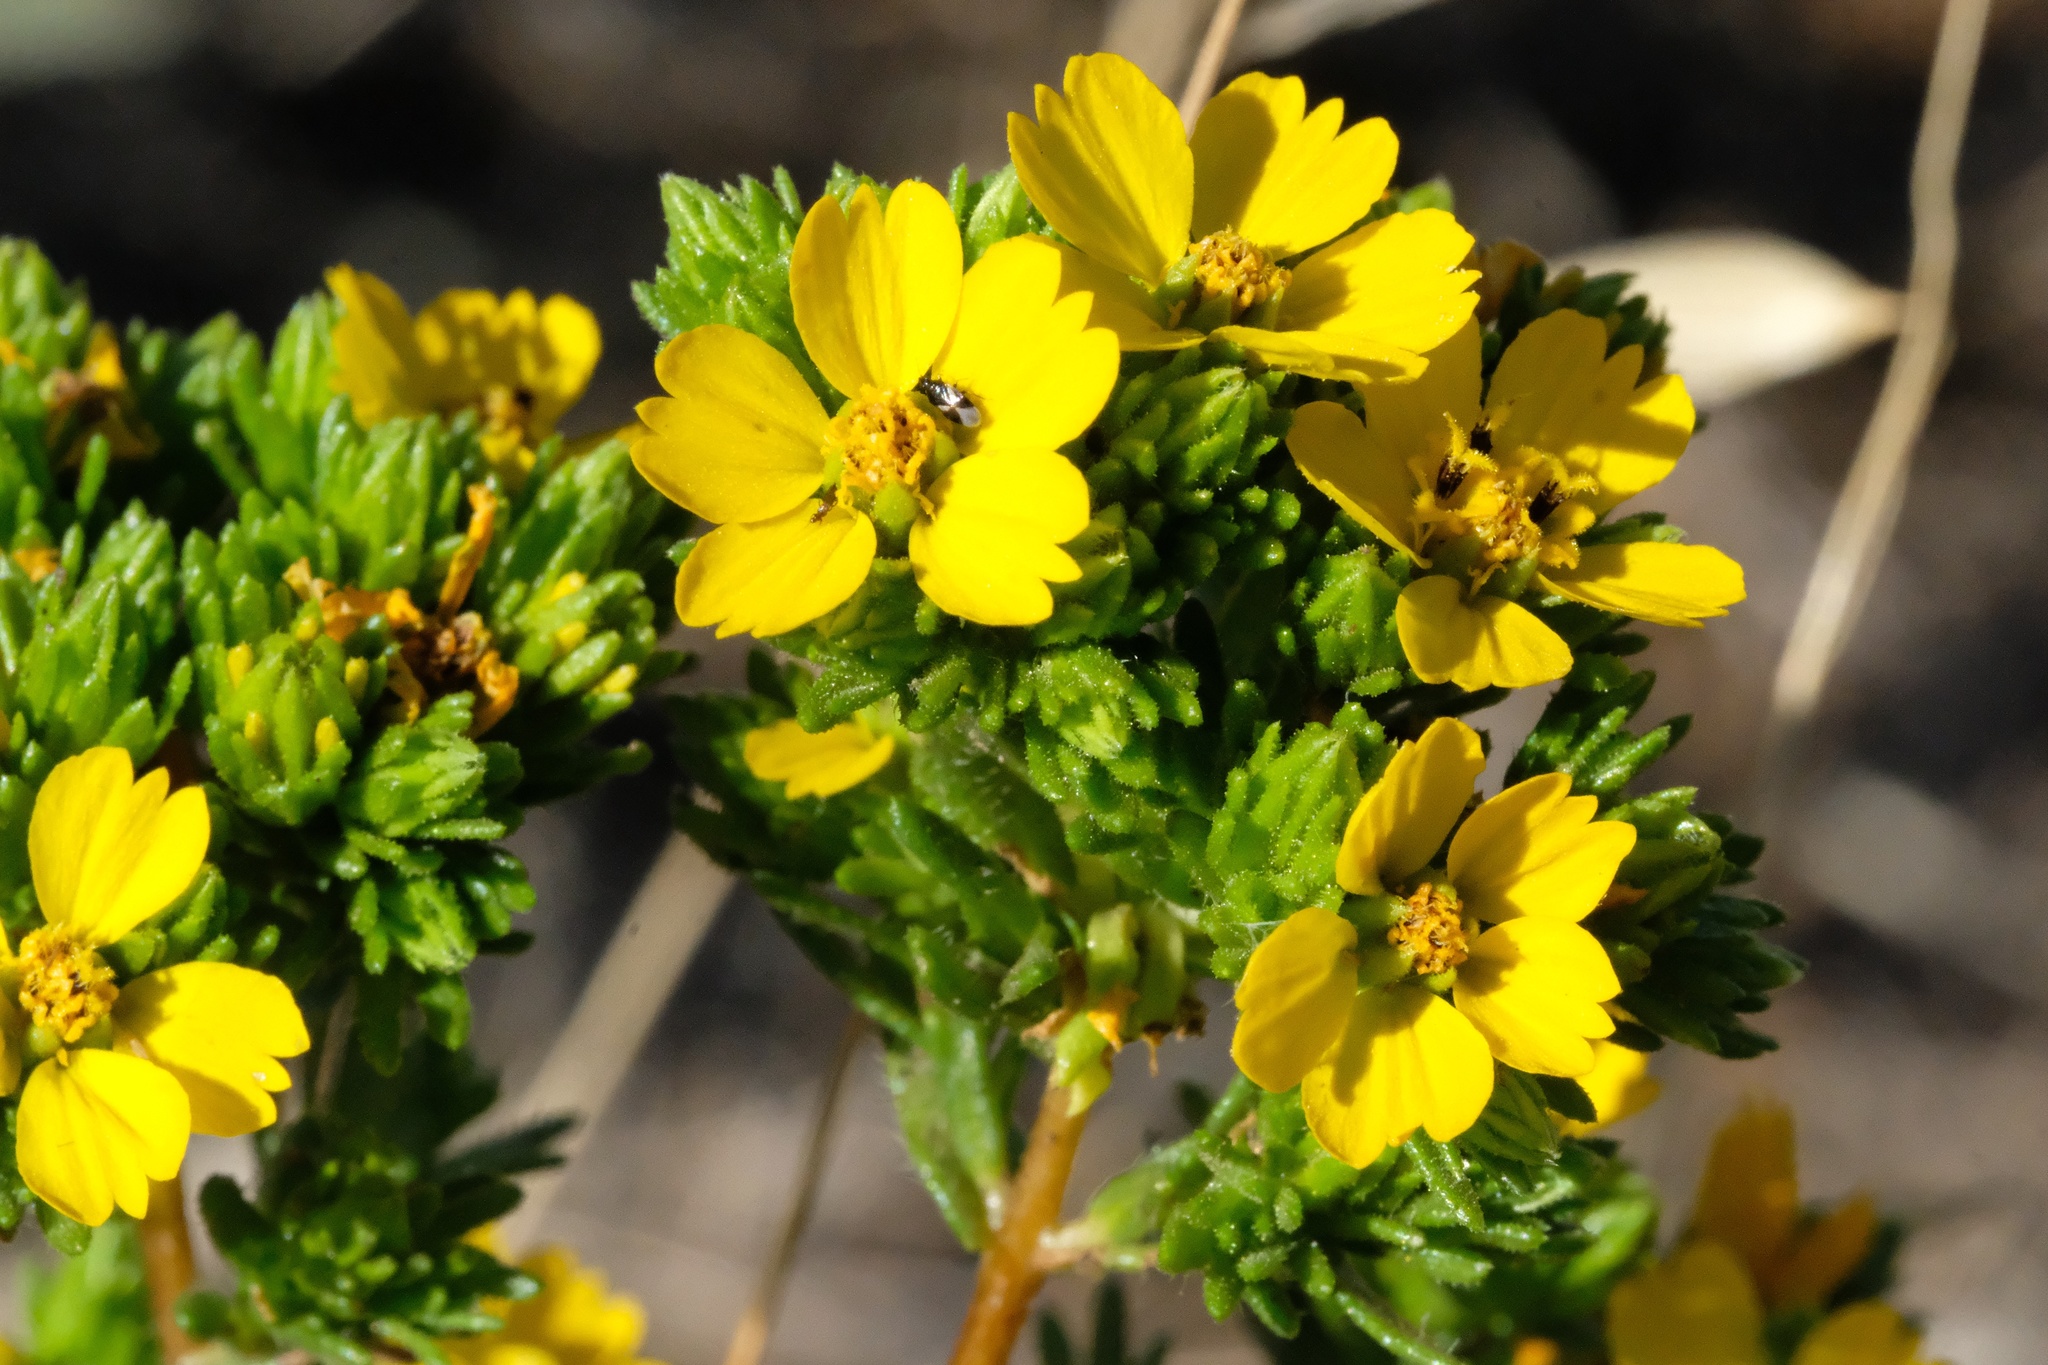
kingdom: Plantae
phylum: Tracheophyta
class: Magnoliopsida
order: Asterales
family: Asteraceae
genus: Deinandra
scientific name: Deinandra fasciculata
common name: Clustered tarweed
